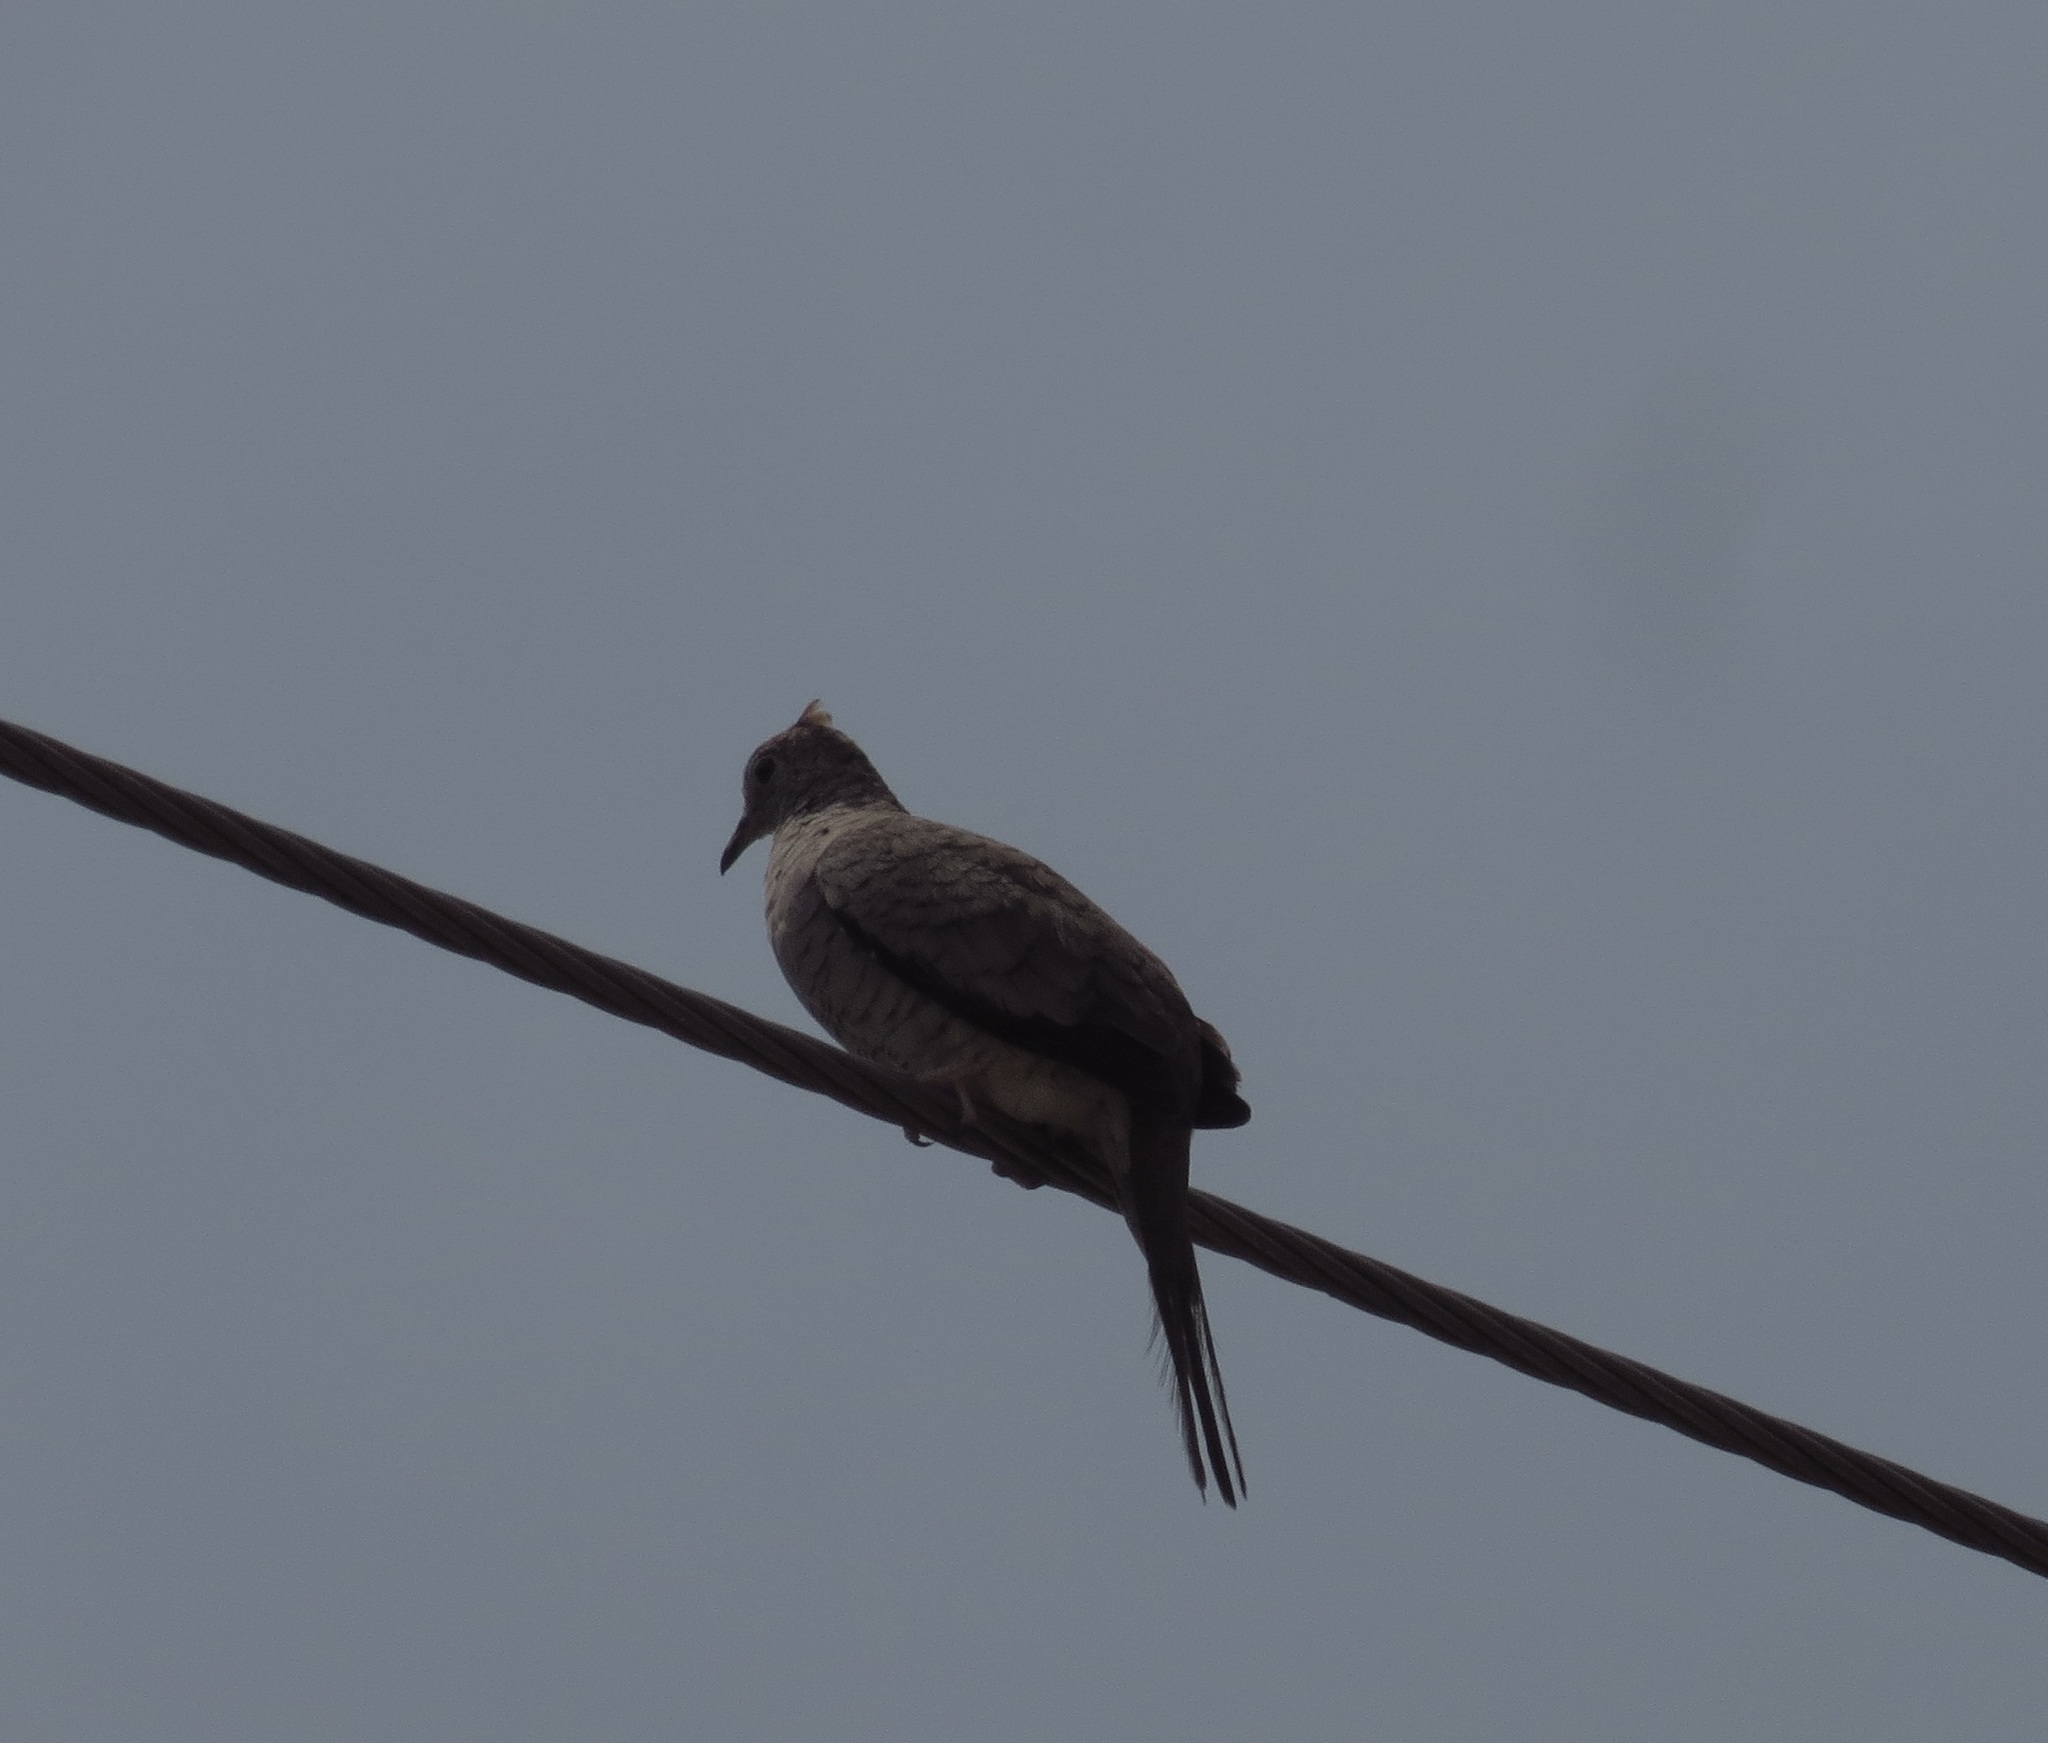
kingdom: Animalia
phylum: Chordata
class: Aves
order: Columbiformes
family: Columbidae
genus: Columbina
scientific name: Columbina inca
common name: Inca dove
